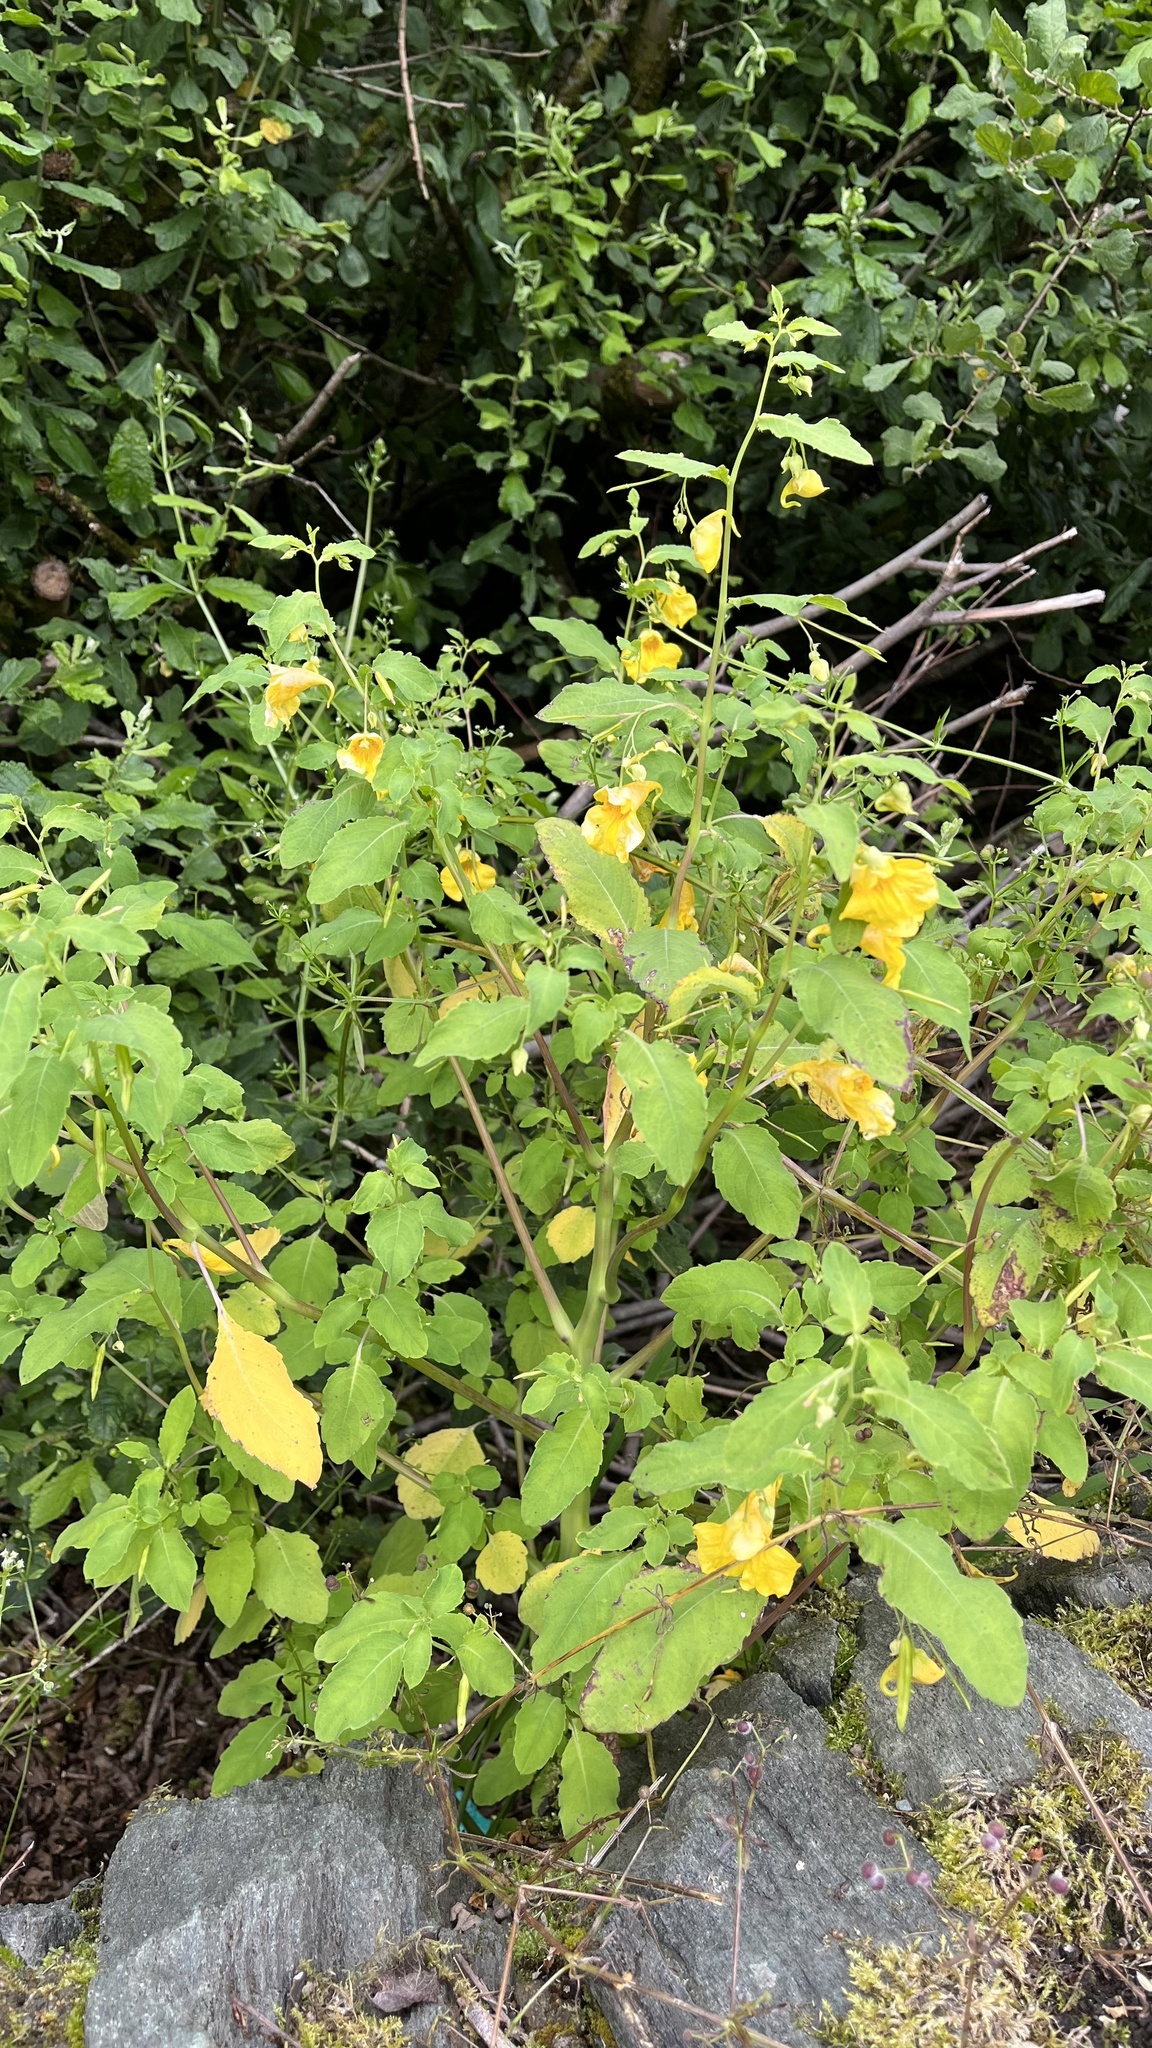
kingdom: Plantae
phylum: Tracheophyta
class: Magnoliopsida
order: Ericales
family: Balsaminaceae
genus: Impatiens
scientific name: Impatiens noli-tangere
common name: Touch-me-not balsam
